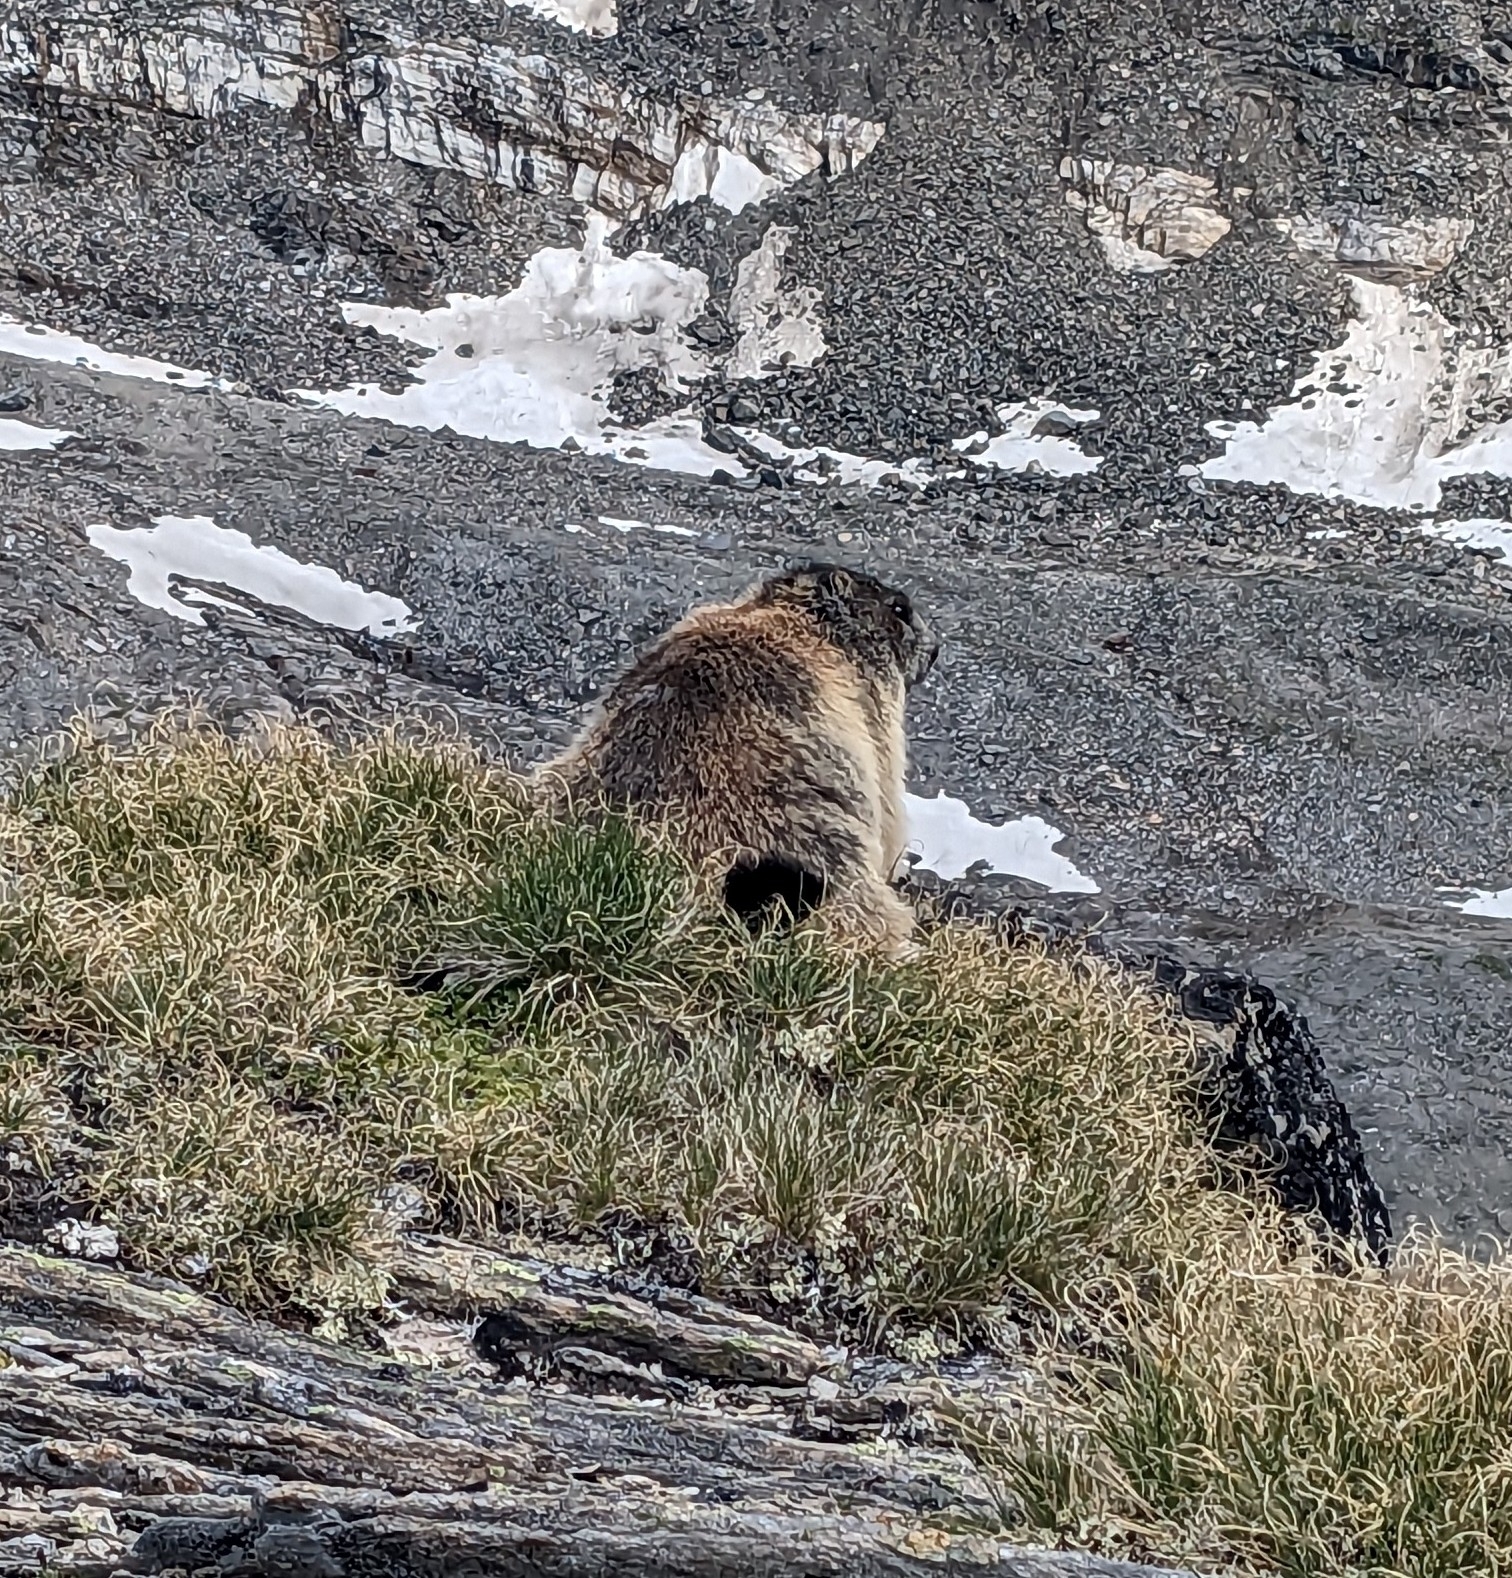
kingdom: Animalia
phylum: Chordata
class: Mammalia
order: Rodentia
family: Sciuridae
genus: Marmota
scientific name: Marmota marmota
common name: Alpine marmot
